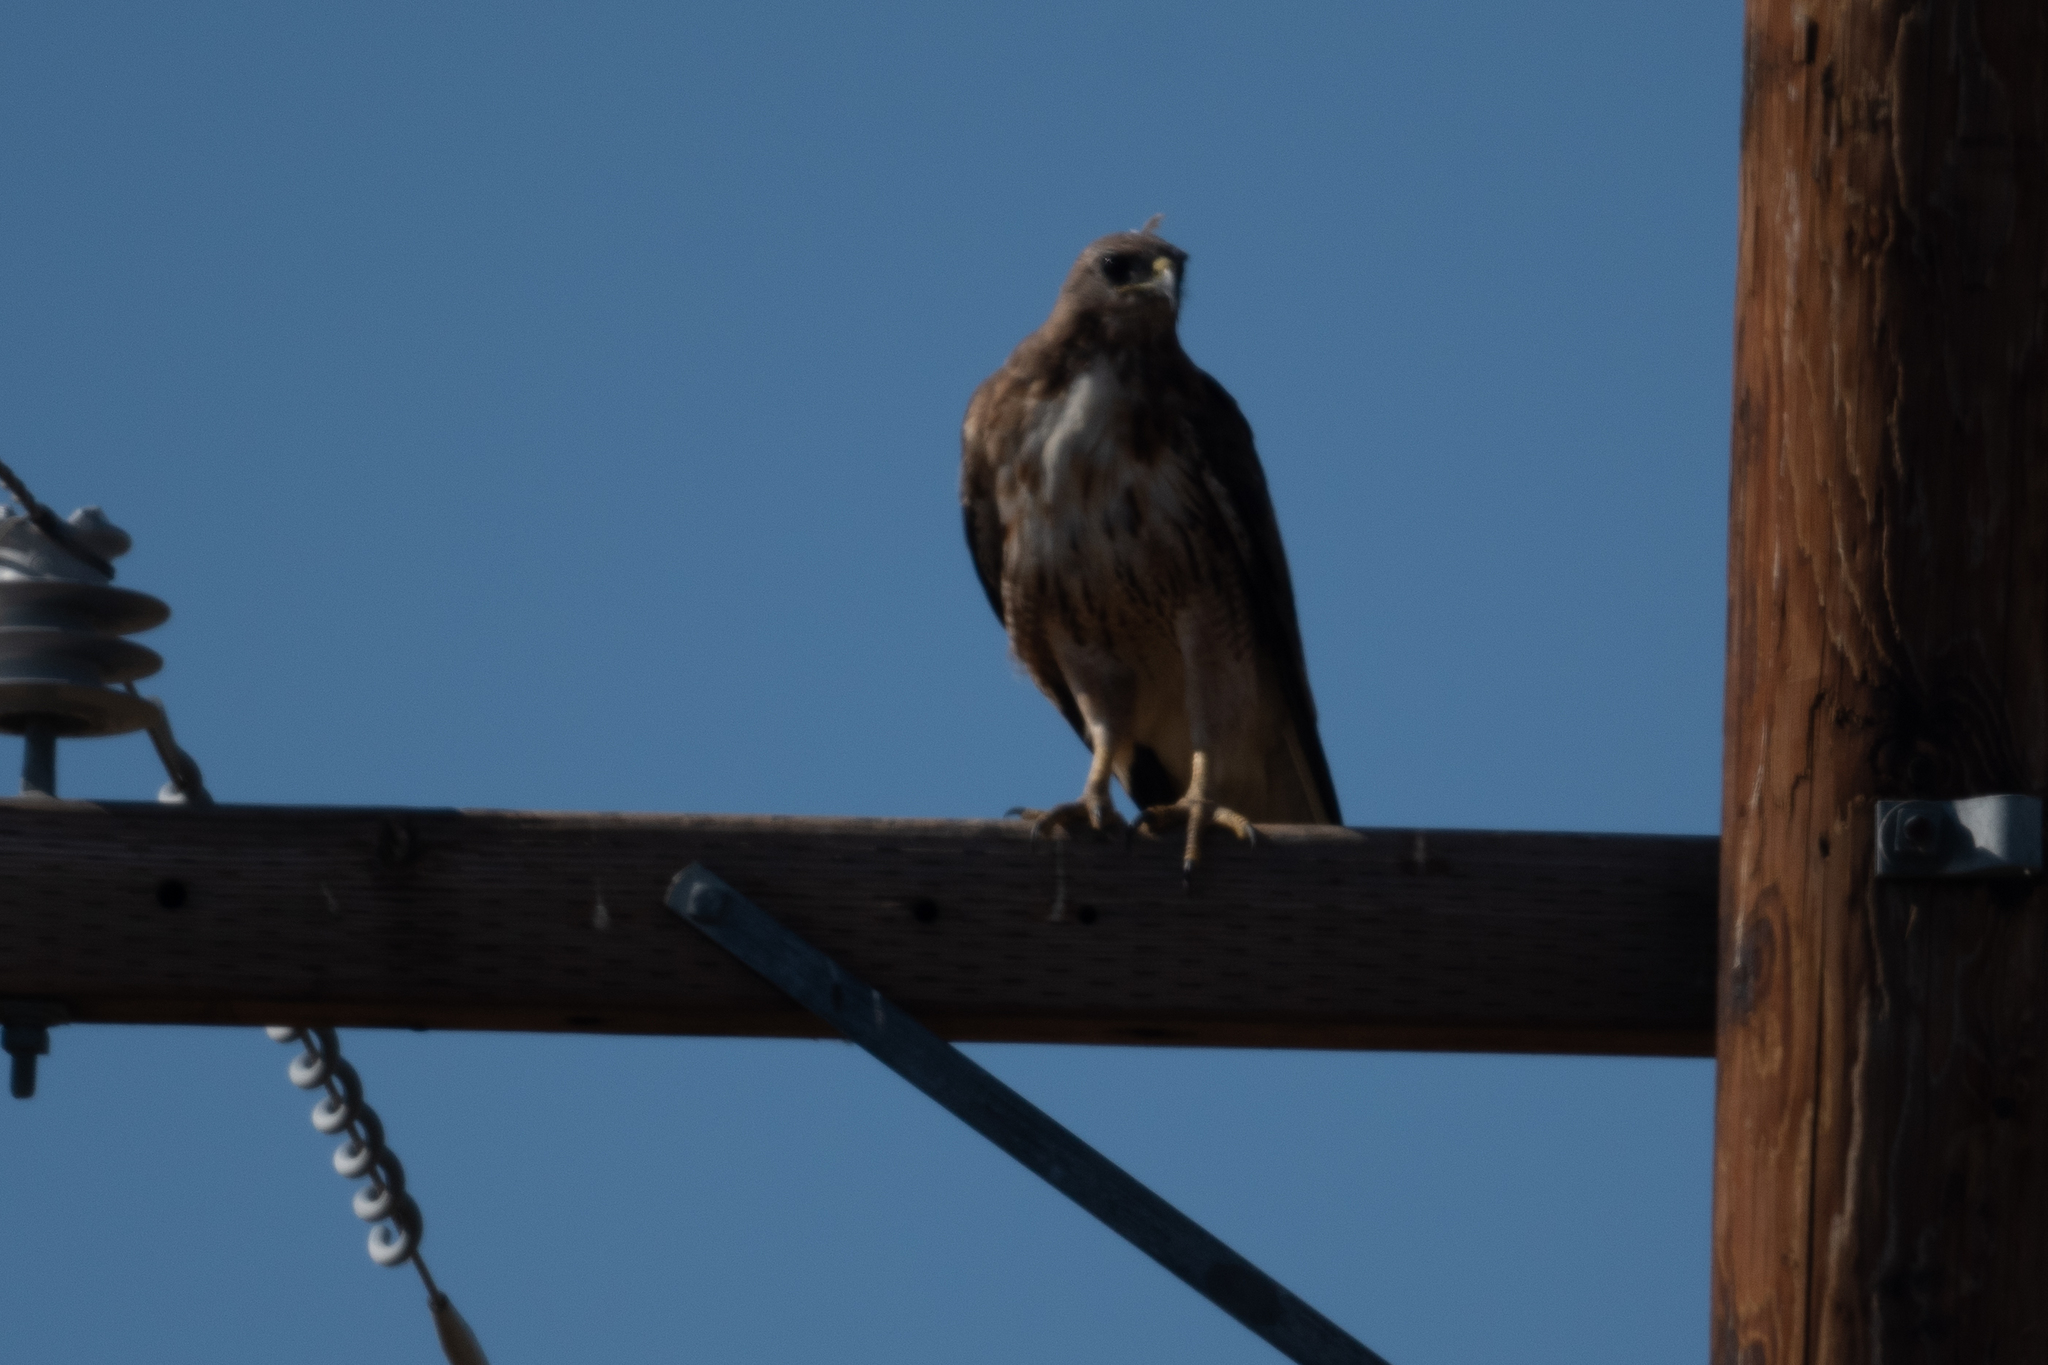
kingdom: Animalia
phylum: Chordata
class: Aves
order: Accipitriformes
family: Accipitridae
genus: Buteo
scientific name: Buteo jamaicensis
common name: Red-tailed hawk
